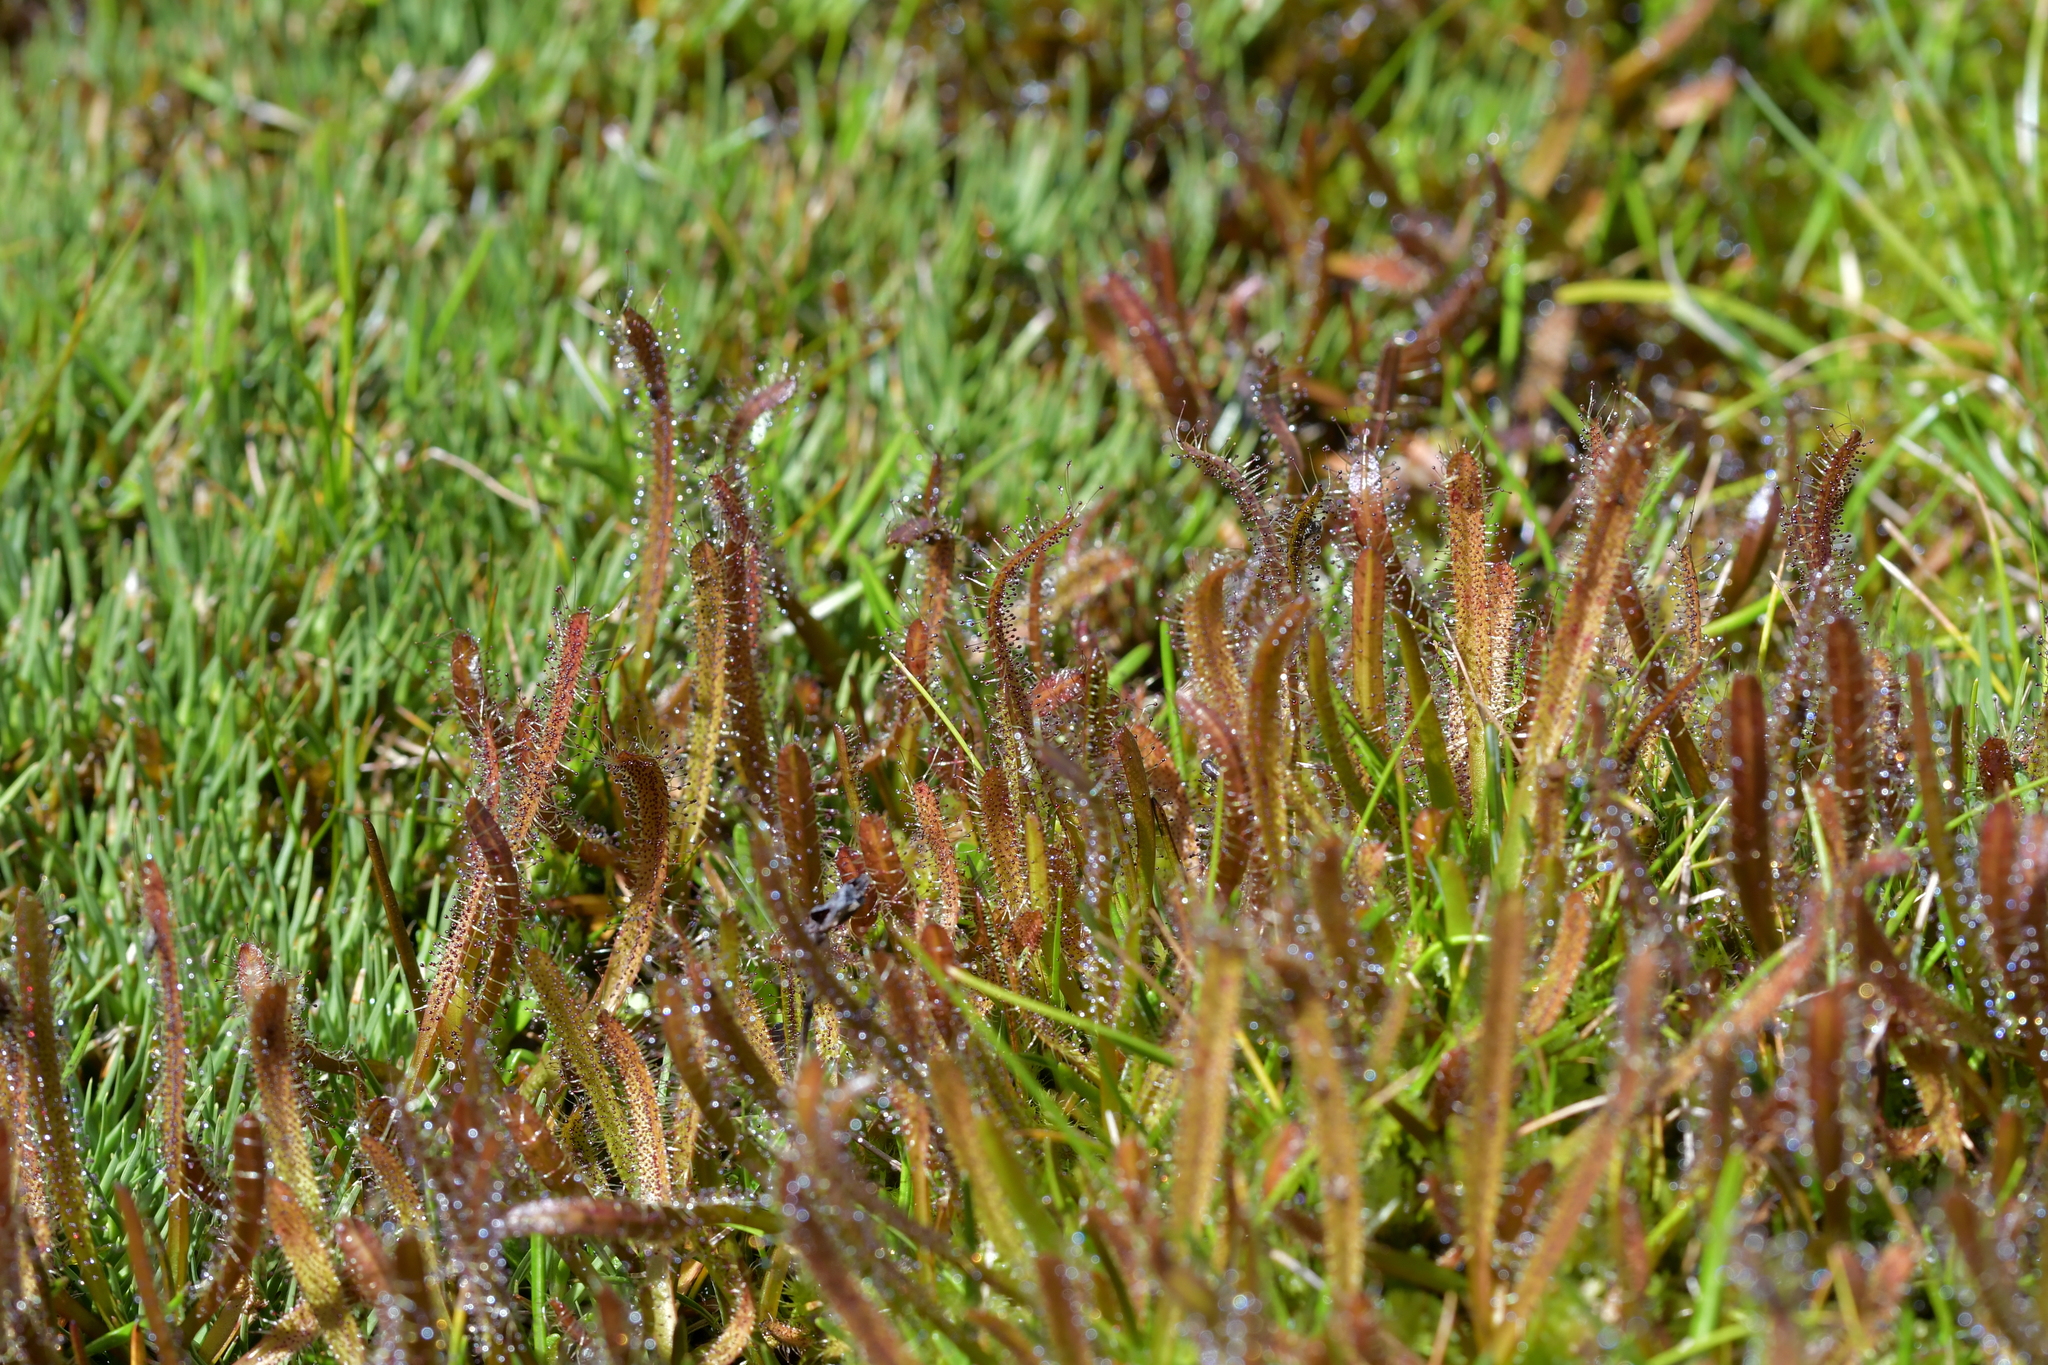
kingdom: Plantae
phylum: Tracheophyta
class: Magnoliopsida
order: Caryophyllales
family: Droseraceae
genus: Drosera
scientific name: Drosera arcturi
